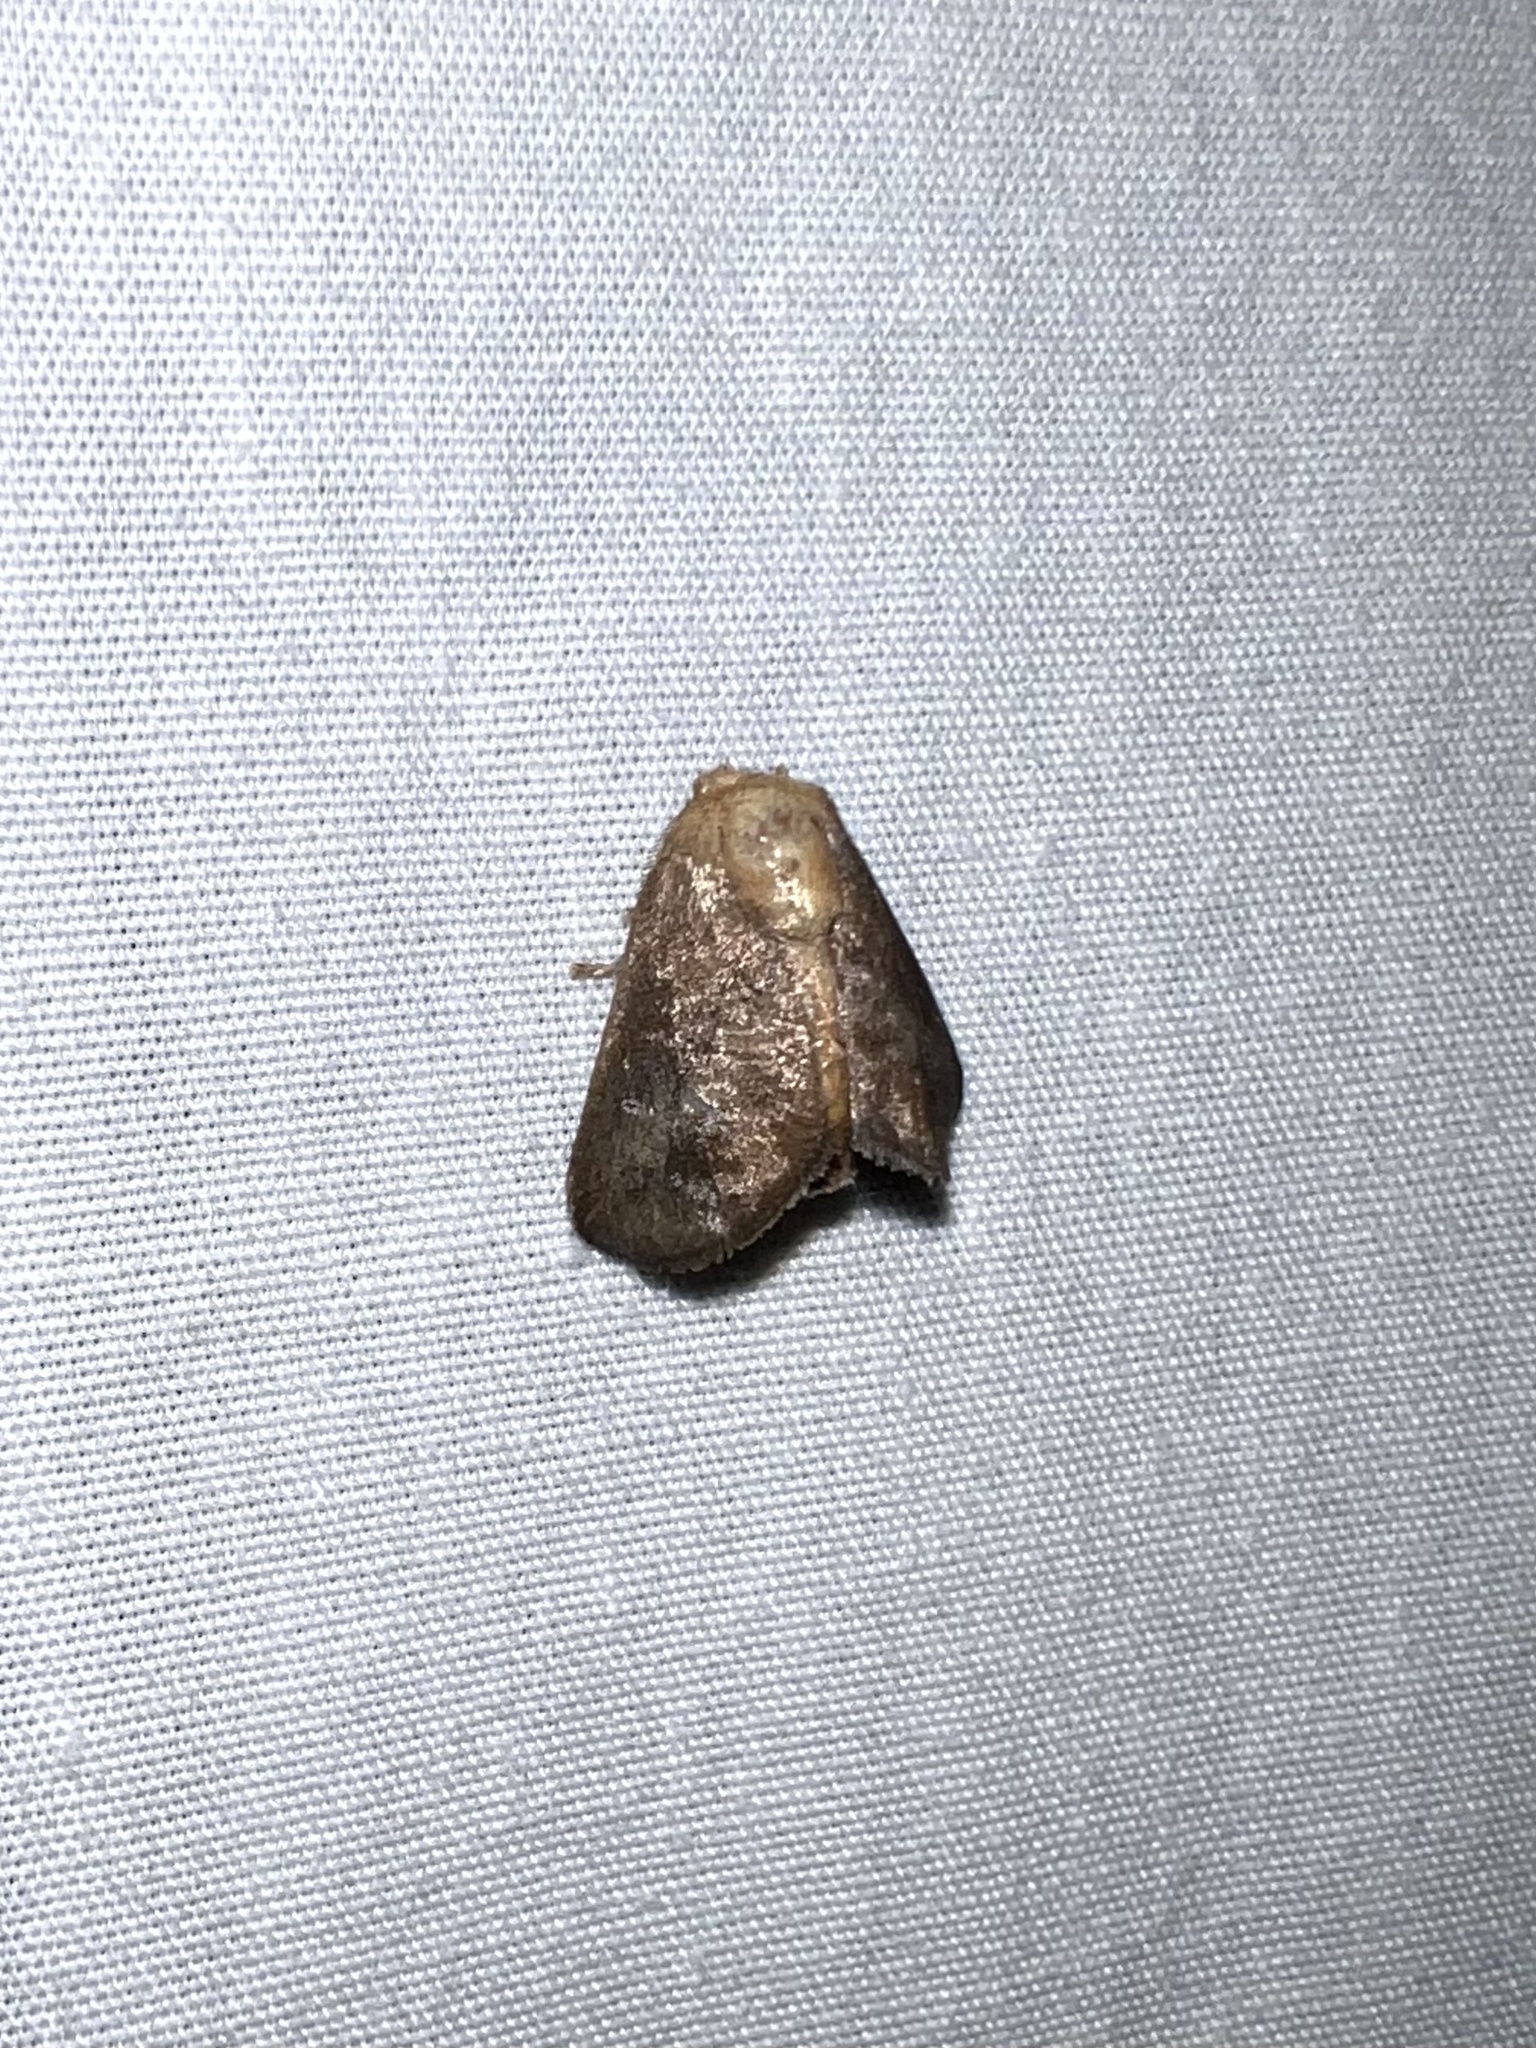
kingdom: Animalia
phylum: Arthropoda
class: Insecta
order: Lepidoptera
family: Limacodidae
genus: Isa
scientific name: Isa textula
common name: Crowned slug moth
